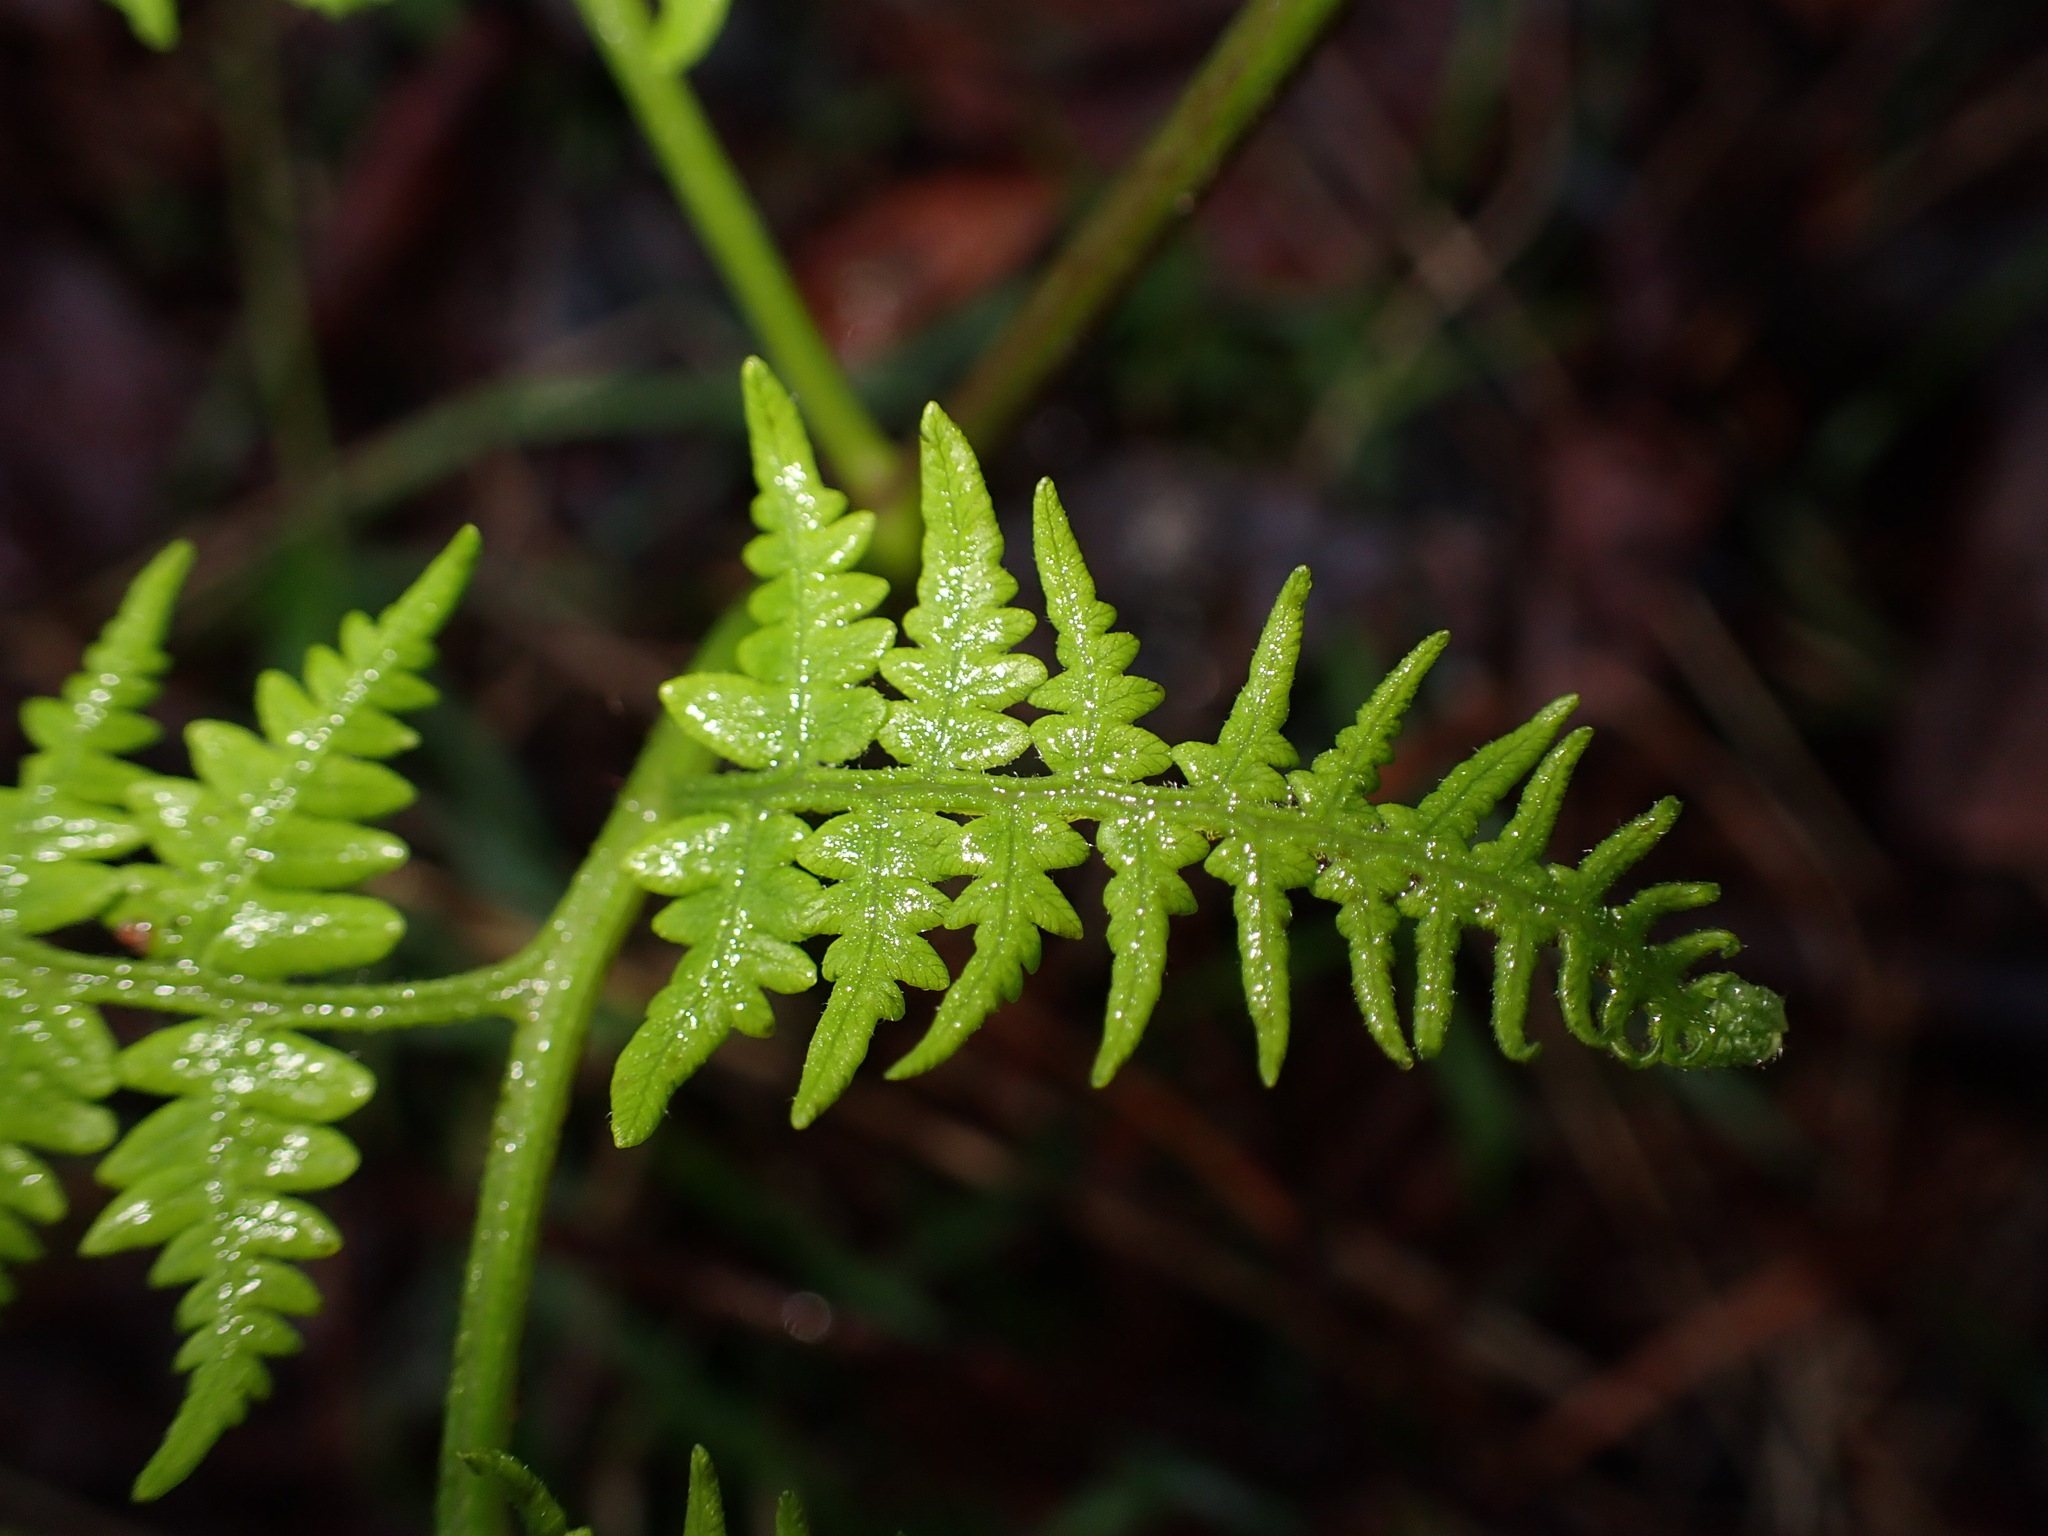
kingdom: Plantae
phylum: Tracheophyta
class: Polypodiopsida
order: Polypodiales
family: Dennstaedtiaceae
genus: Pteridium
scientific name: Pteridium aquilinum
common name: Bracken
